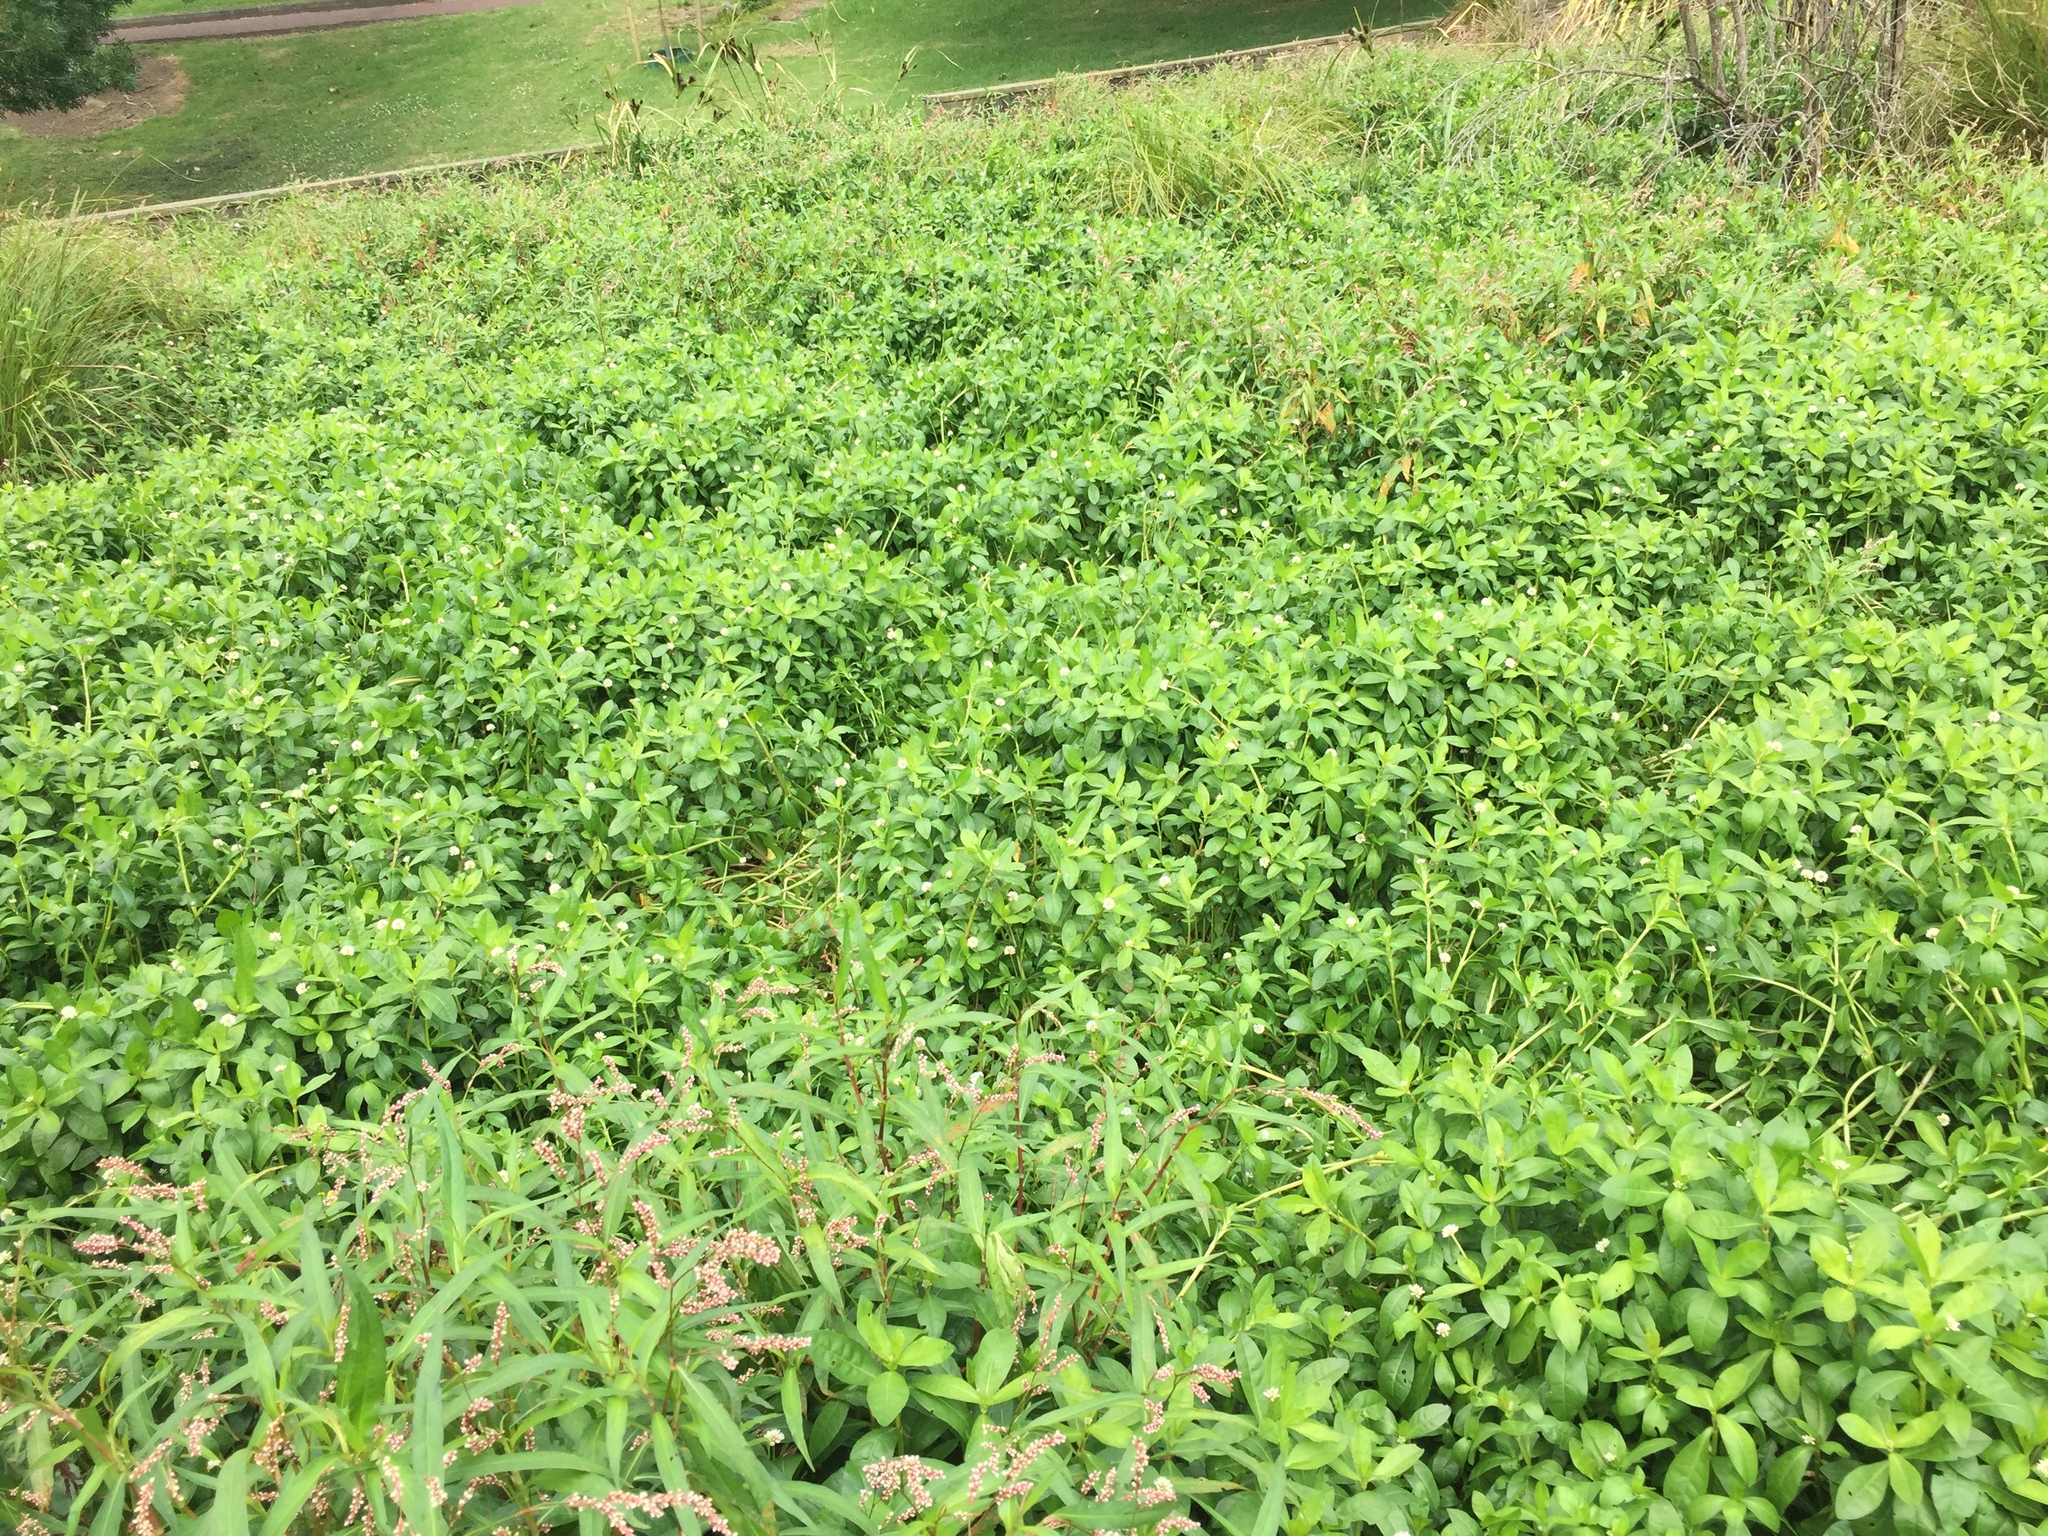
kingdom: Plantae
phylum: Tracheophyta
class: Magnoliopsida
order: Caryophyllales
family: Amaranthaceae
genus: Alternanthera
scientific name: Alternanthera philoxeroides
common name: Alligatorweed
